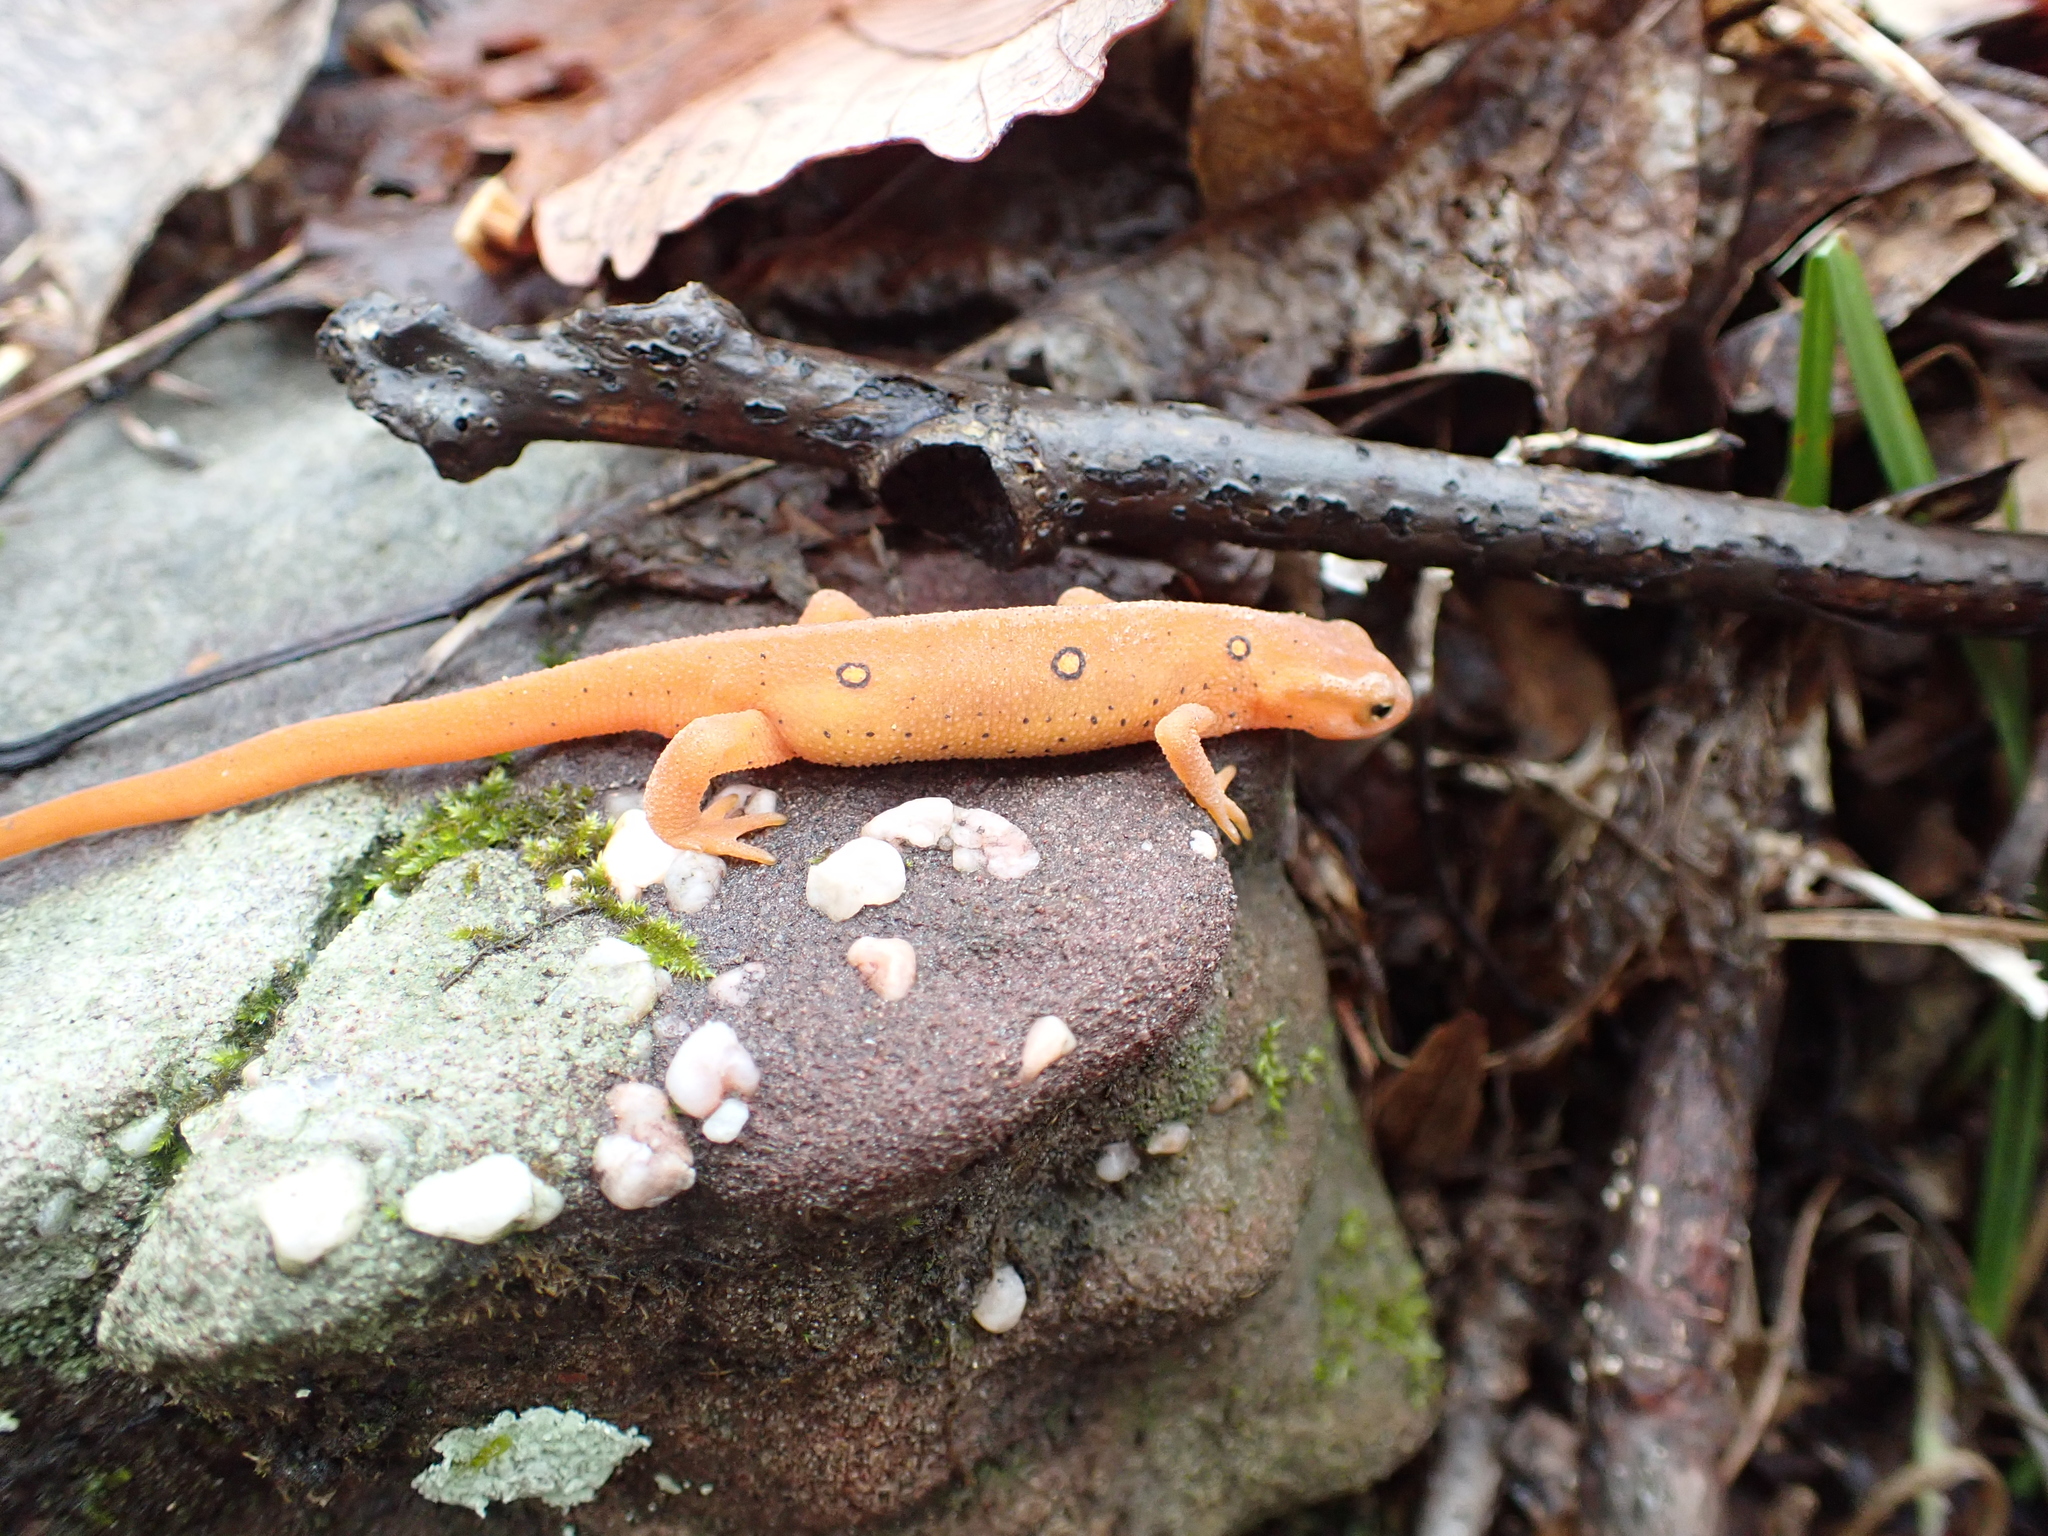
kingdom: Animalia
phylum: Chordata
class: Amphibia
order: Caudata
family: Salamandridae
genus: Notophthalmus
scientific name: Notophthalmus viridescens
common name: Eastern newt
